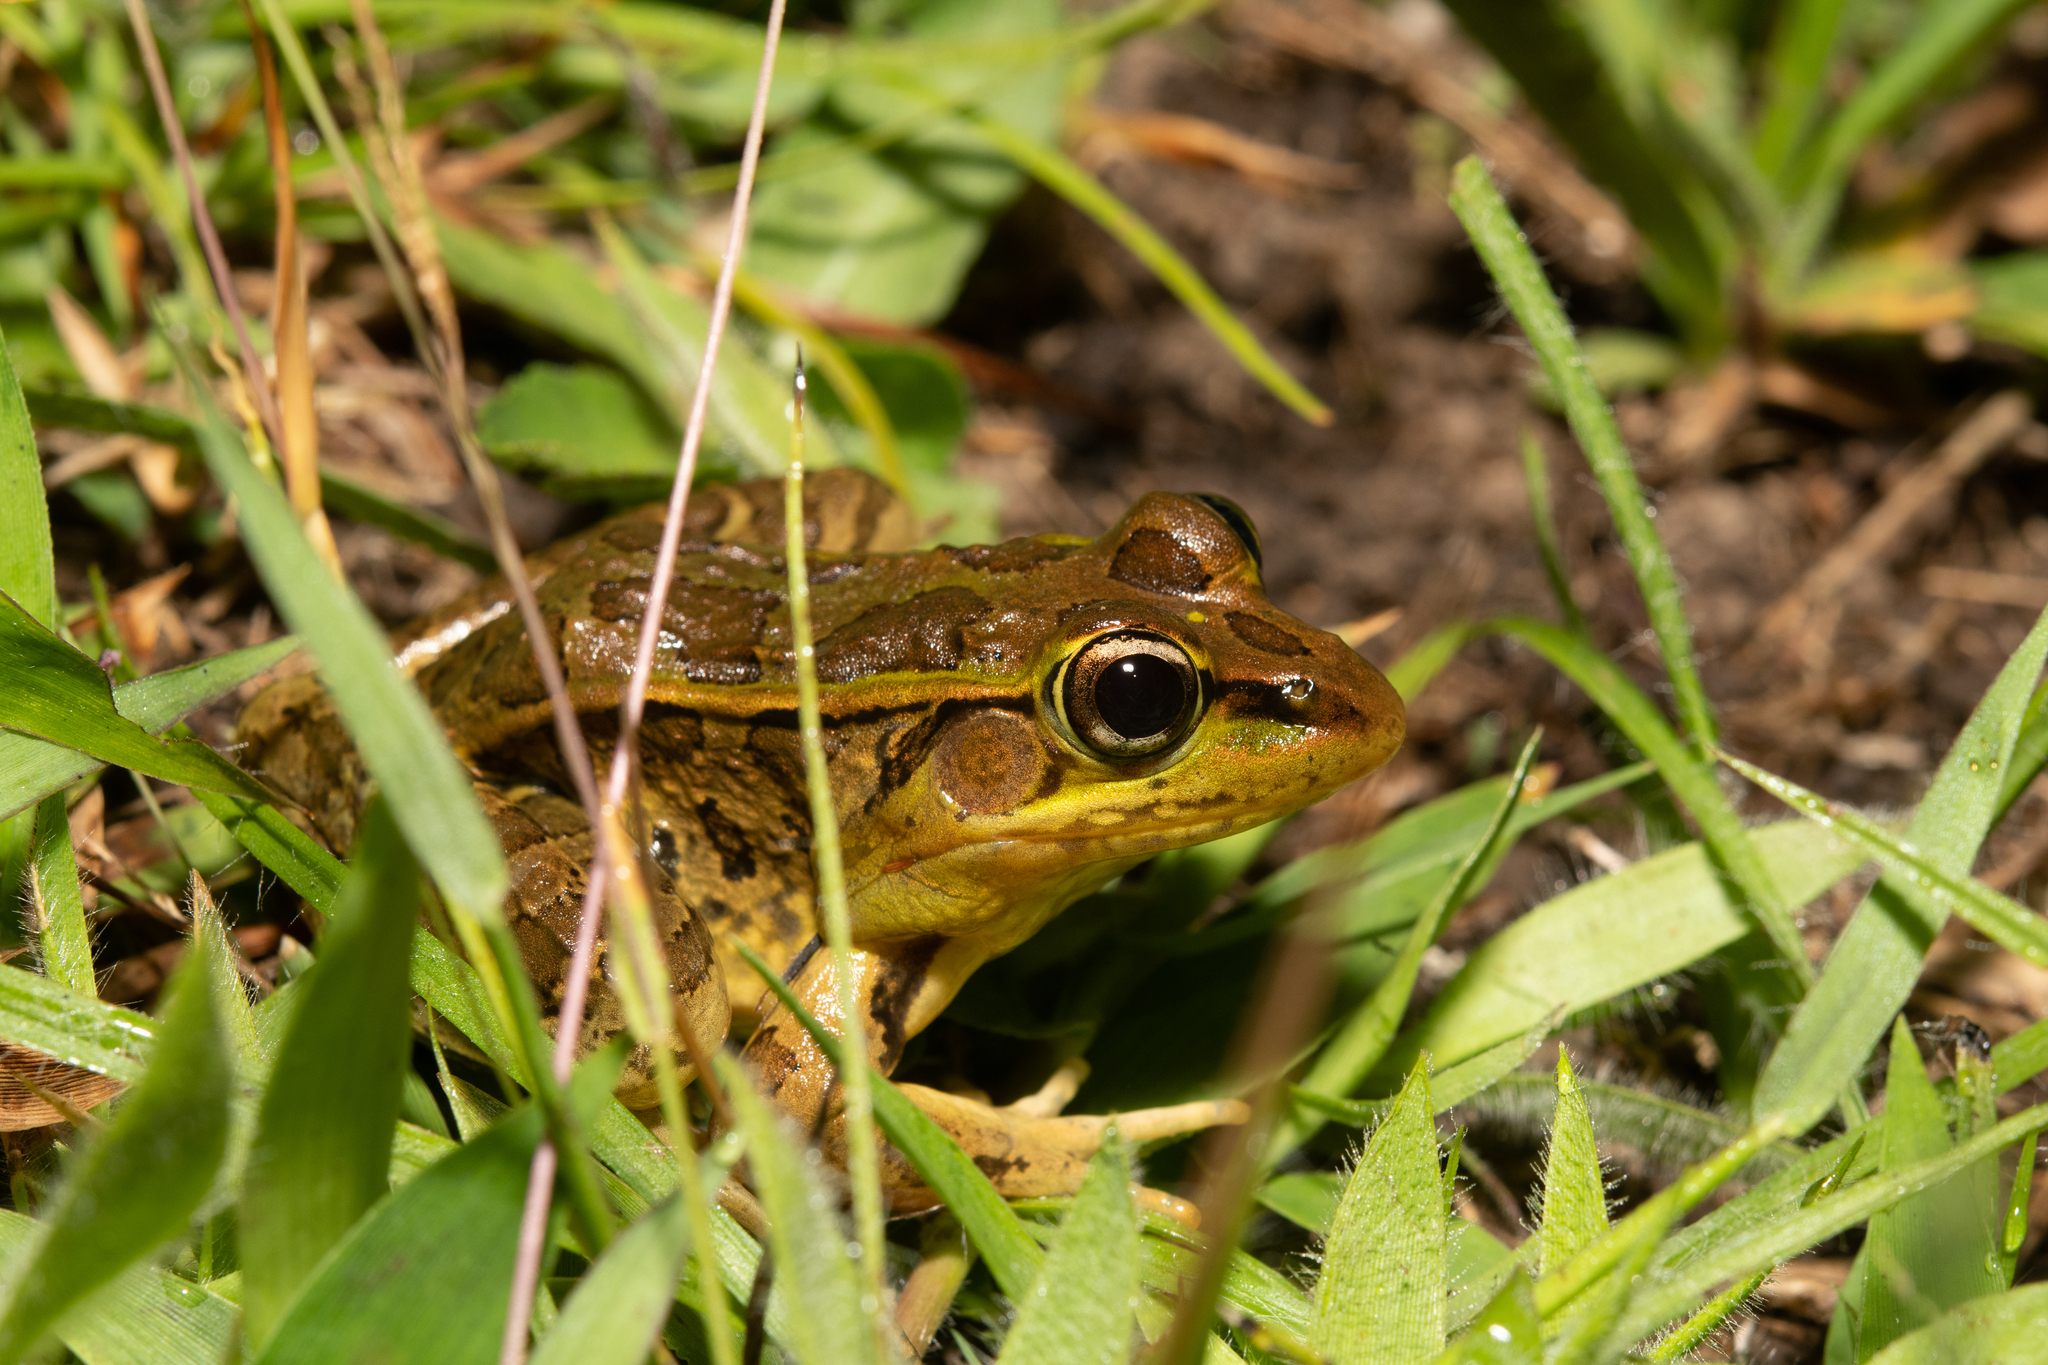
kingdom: Animalia
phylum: Chordata
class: Amphibia
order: Anura
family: Ranidae
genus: Lithobates
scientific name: Lithobates lenca
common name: Lenca leopard frog
